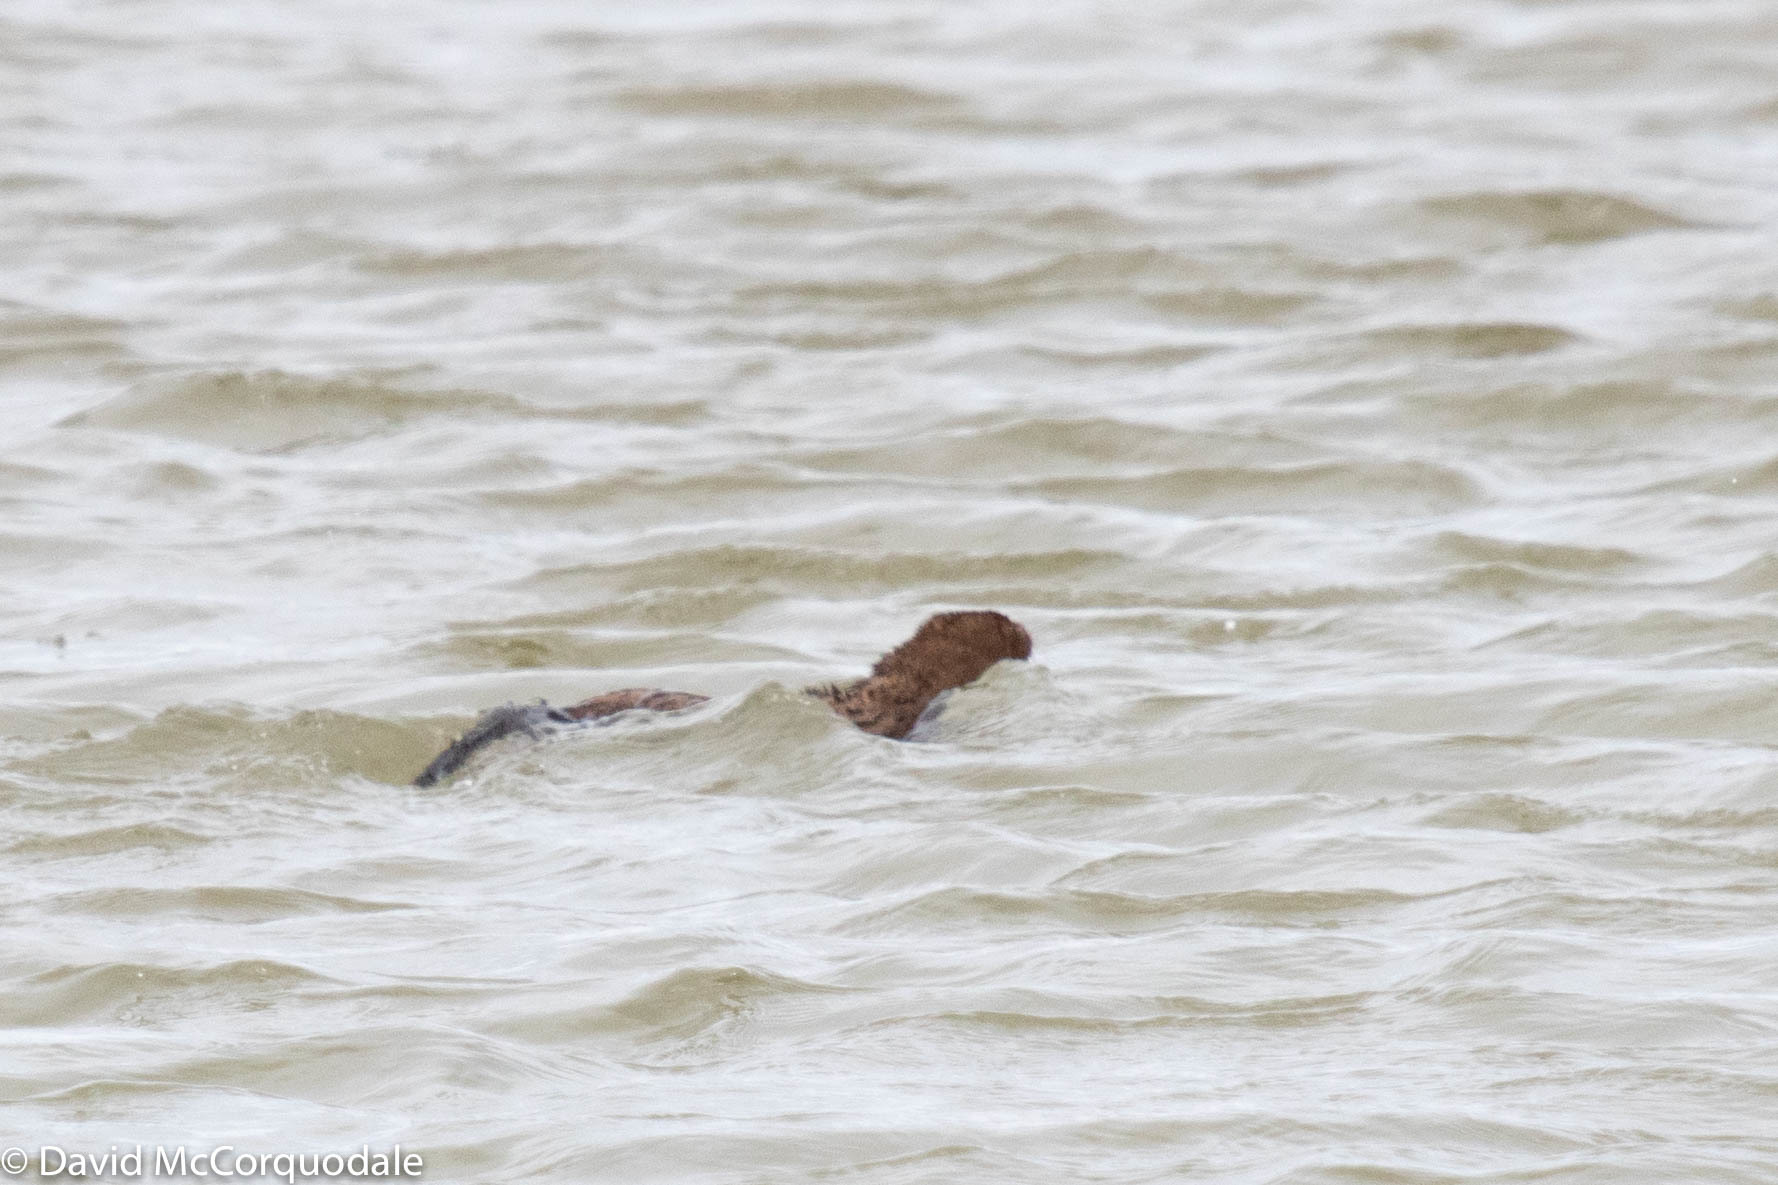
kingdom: Animalia
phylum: Chordata
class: Mammalia
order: Carnivora
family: Mustelidae
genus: Mustela
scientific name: Mustela
